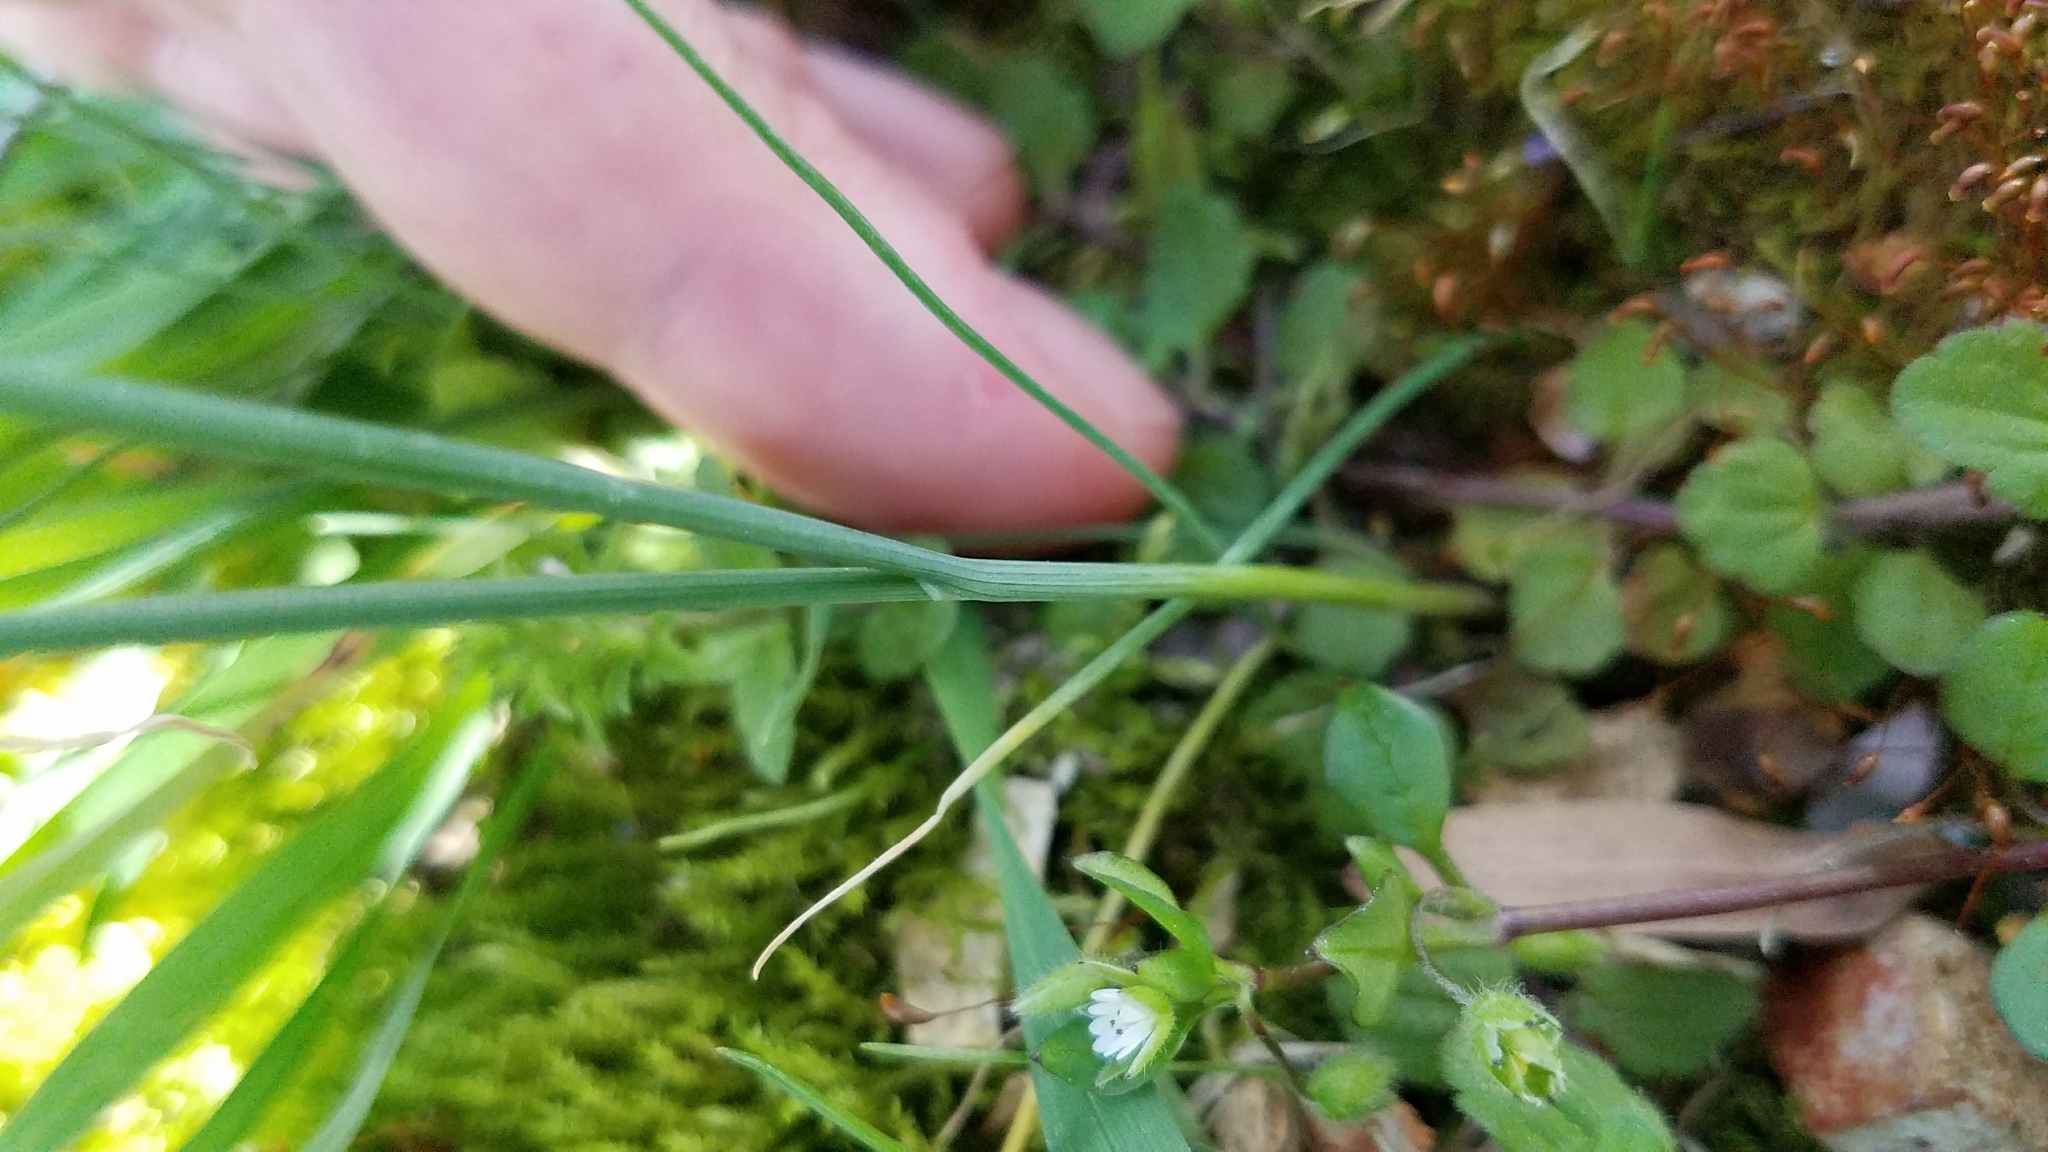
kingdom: Plantae
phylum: Tracheophyta
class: Liliopsida
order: Asparagales
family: Amaryllidaceae
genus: Allium
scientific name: Allium vineale
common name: Crow garlic
